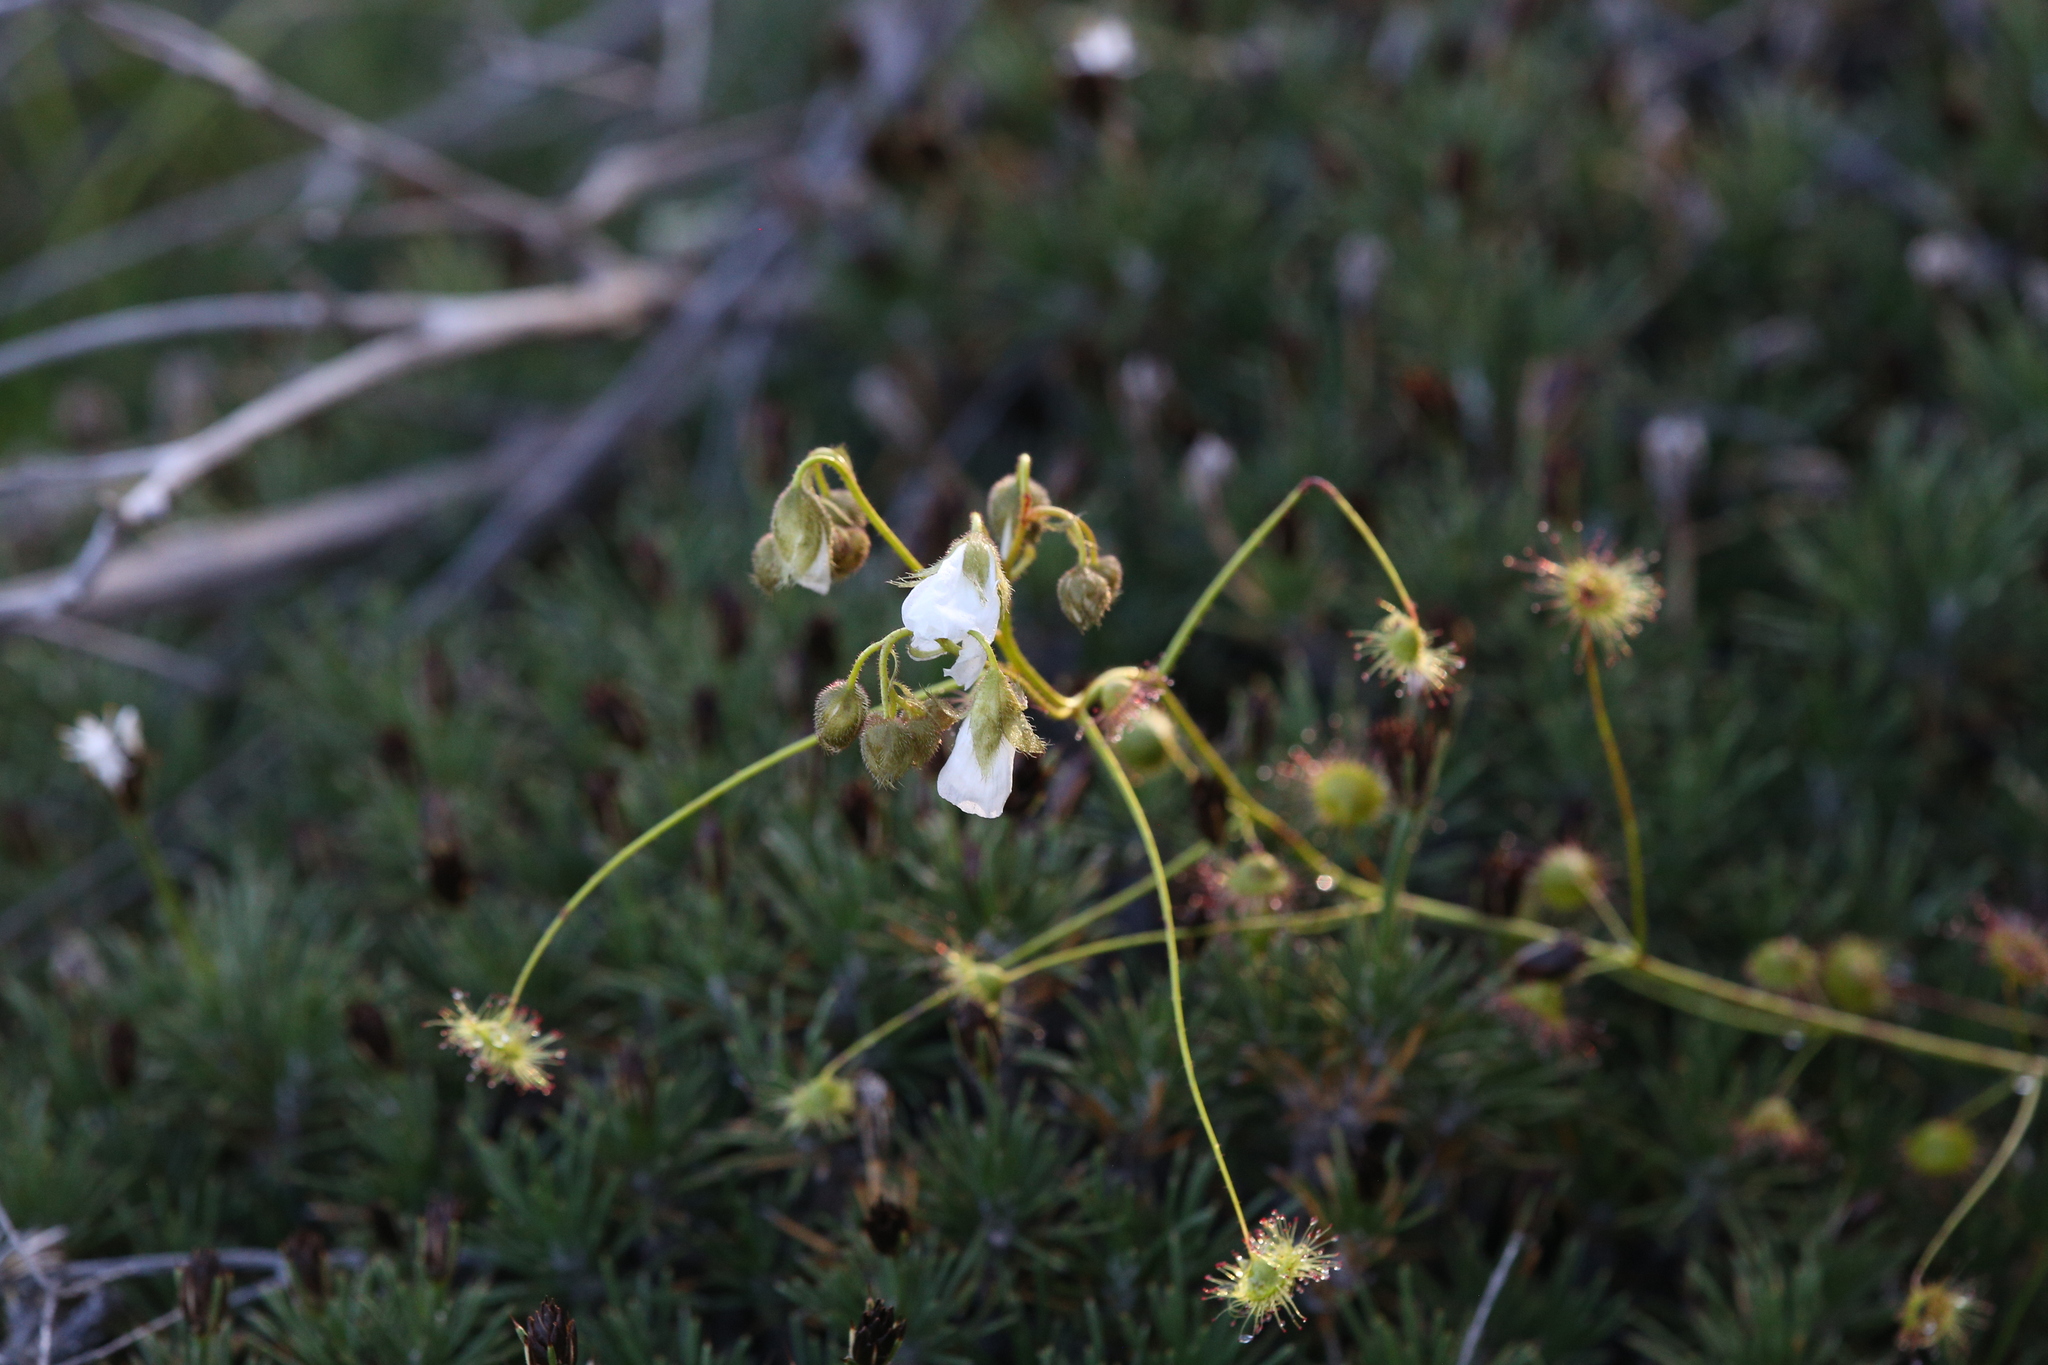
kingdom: Plantae
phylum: Tracheophyta
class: Magnoliopsida
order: Caryophyllales
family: Droseraceae
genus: Drosera
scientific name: Drosera macrantha
